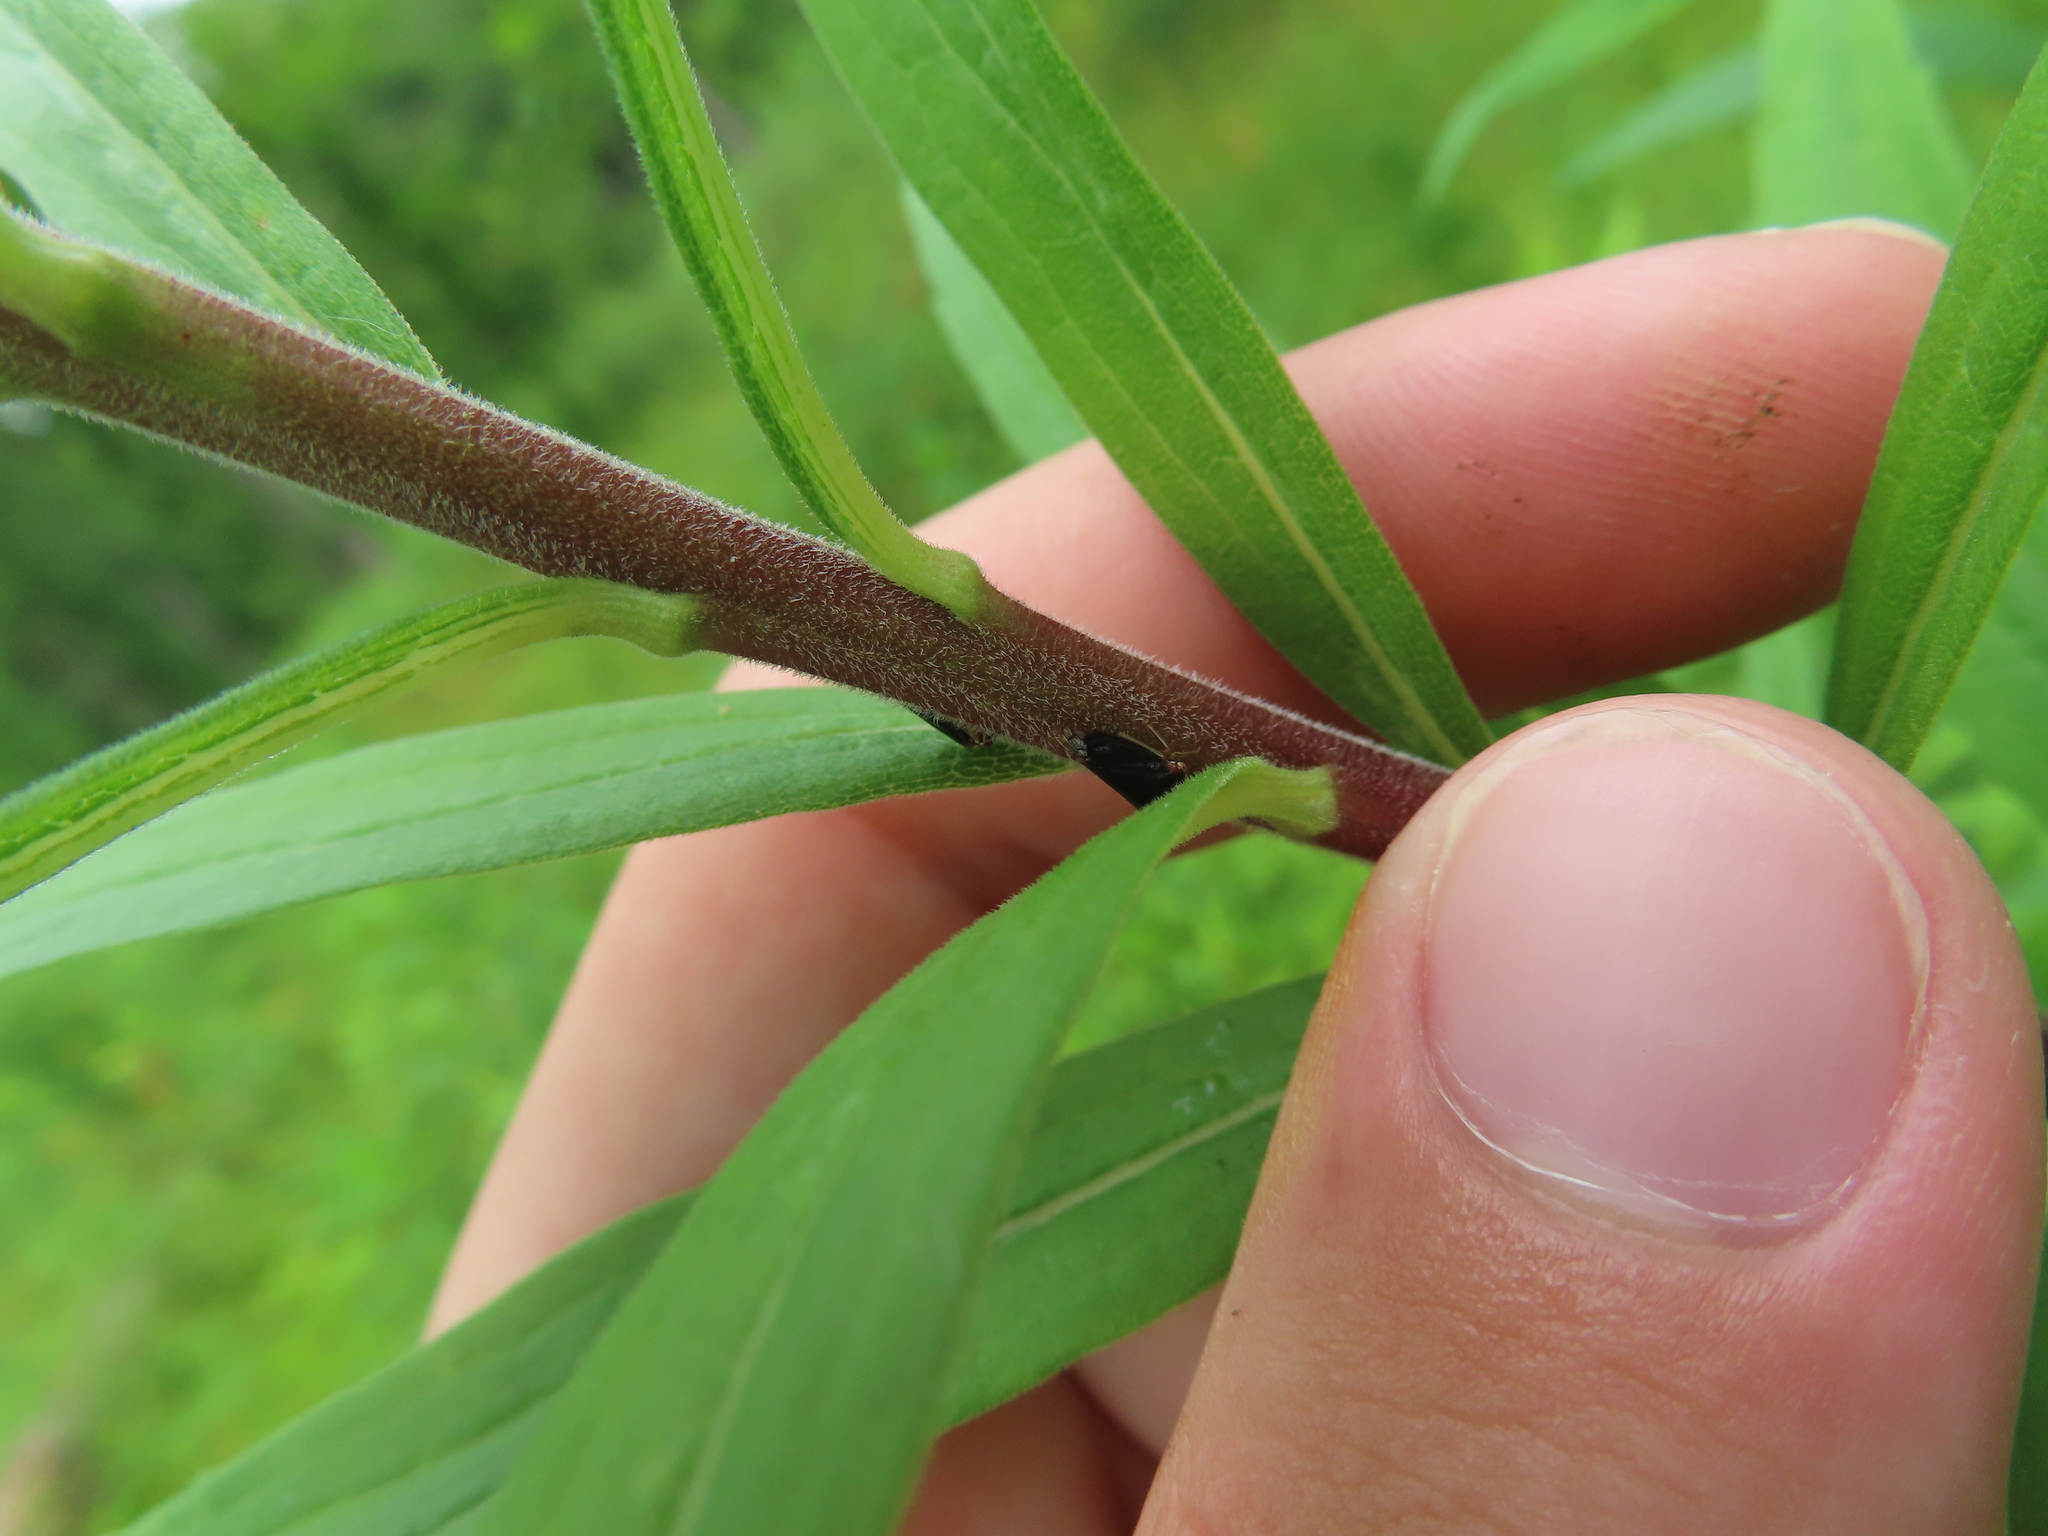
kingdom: Animalia
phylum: Arthropoda
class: Insecta
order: Hemiptera
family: Membracidae
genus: Acutalis
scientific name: Acutalis tartarea
